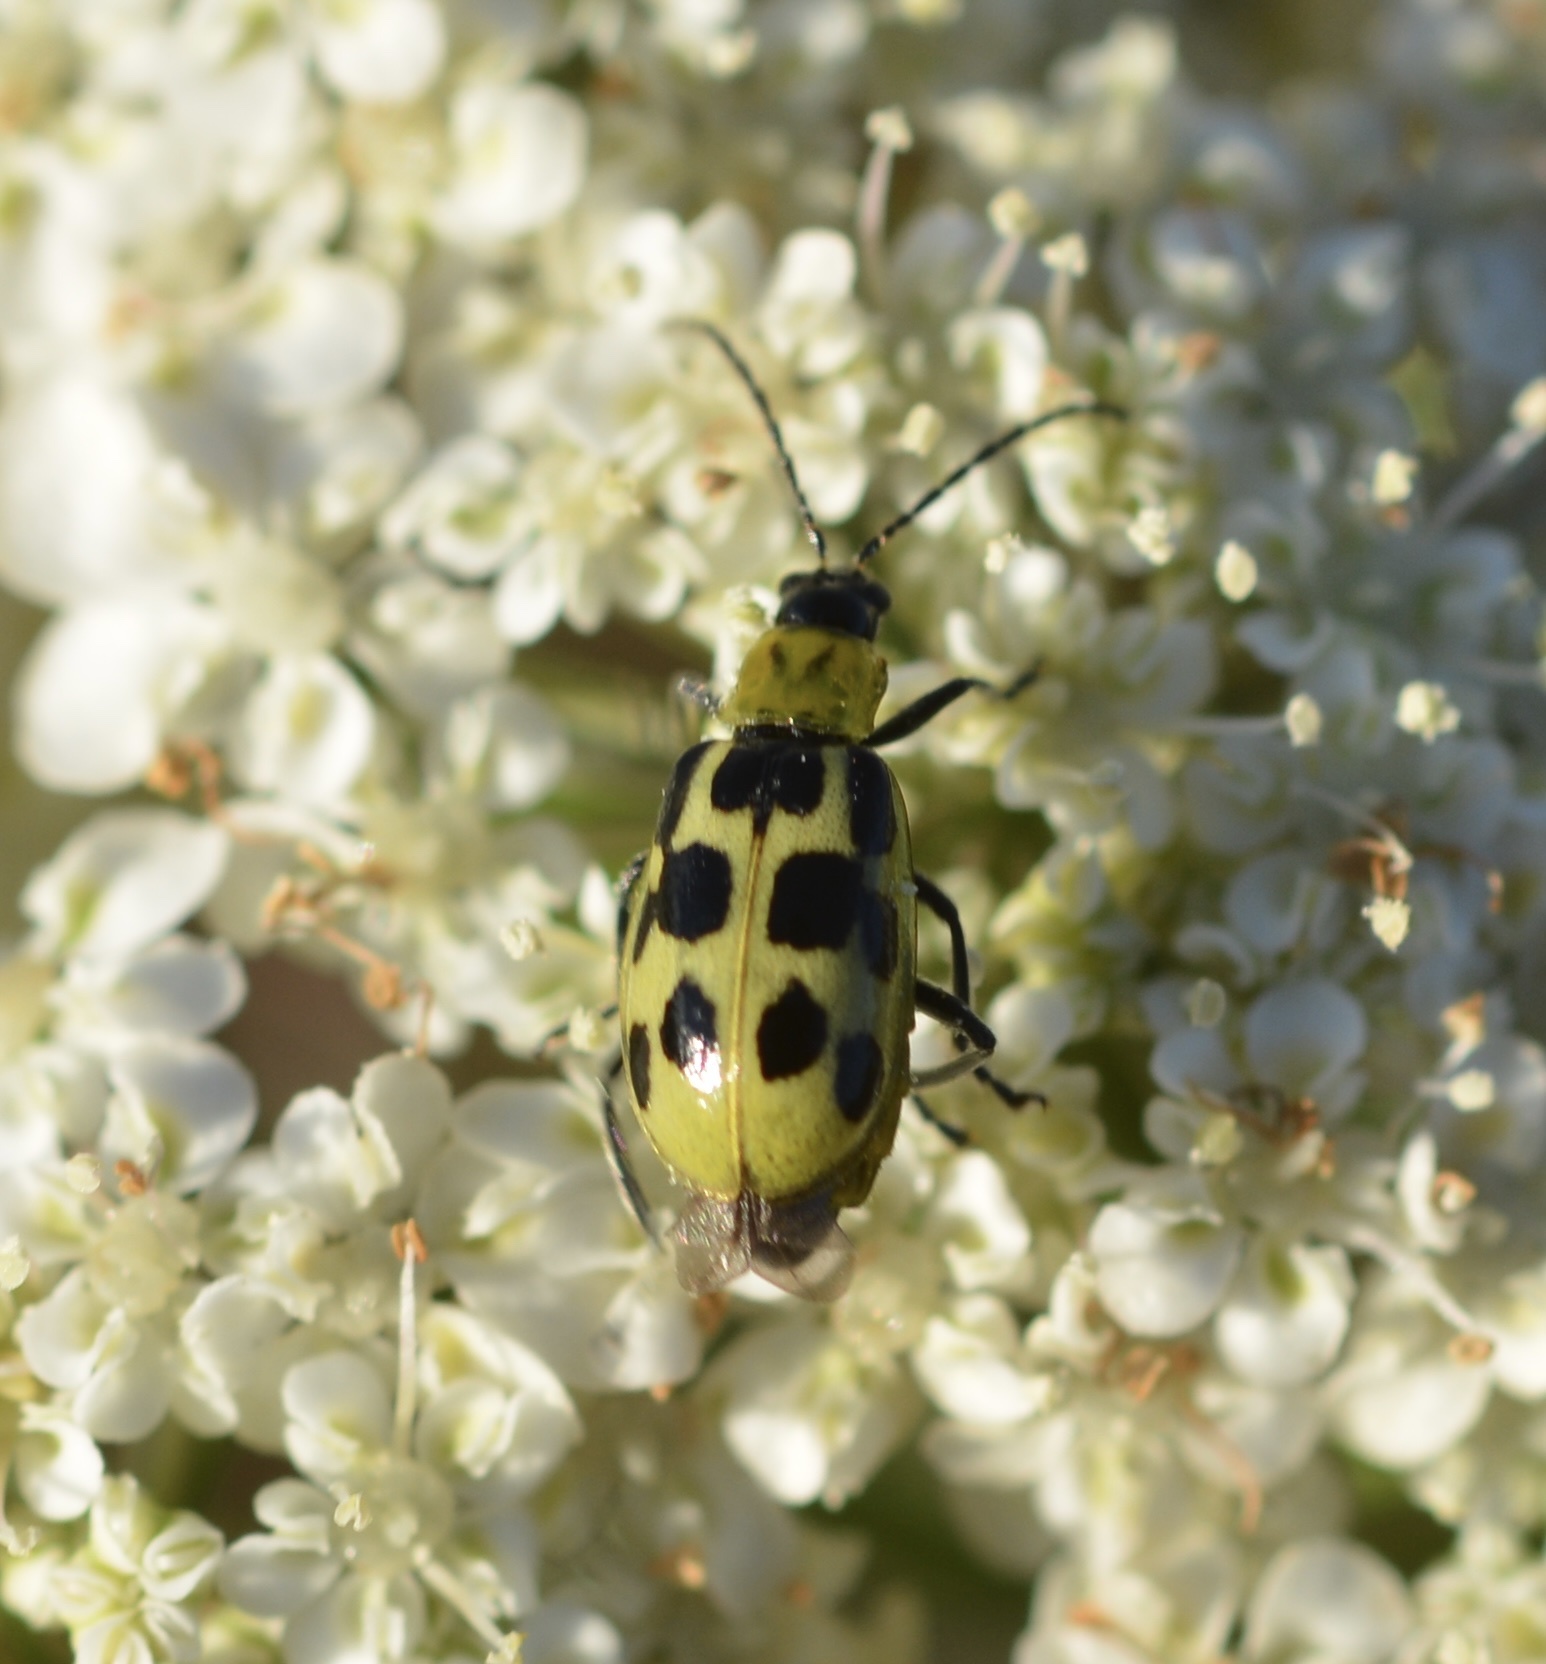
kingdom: Animalia
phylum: Arthropoda
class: Insecta
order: Coleoptera
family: Chrysomelidae
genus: Diabrotica
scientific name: Diabrotica undecimpunctata
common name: Spotted cucumber beetle
